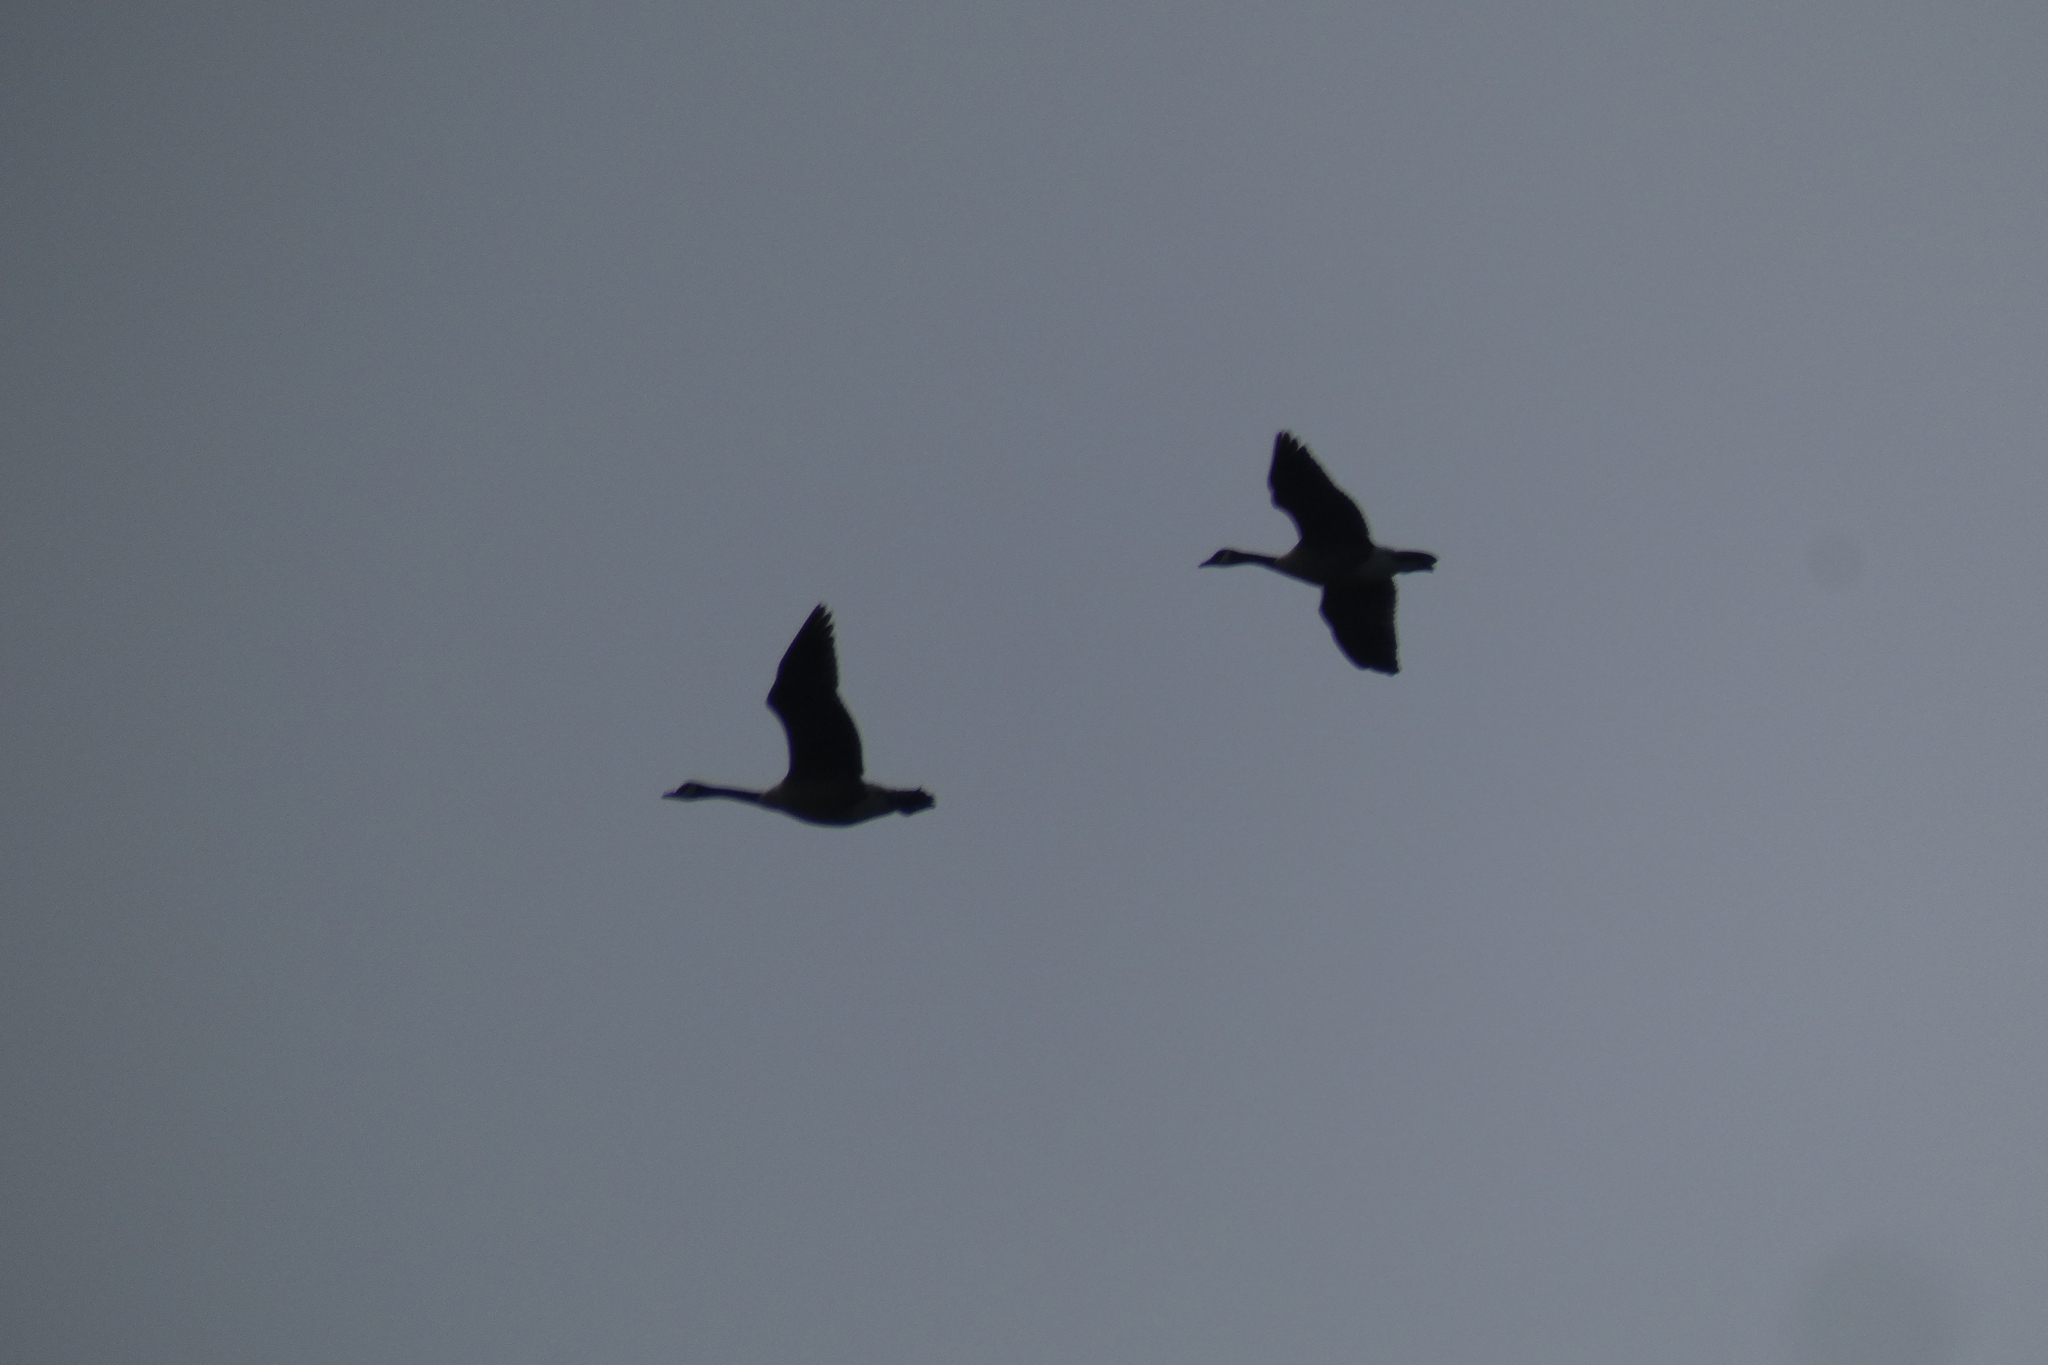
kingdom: Animalia
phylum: Chordata
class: Aves
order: Anseriformes
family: Anatidae
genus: Branta
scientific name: Branta canadensis
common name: Canada goose
